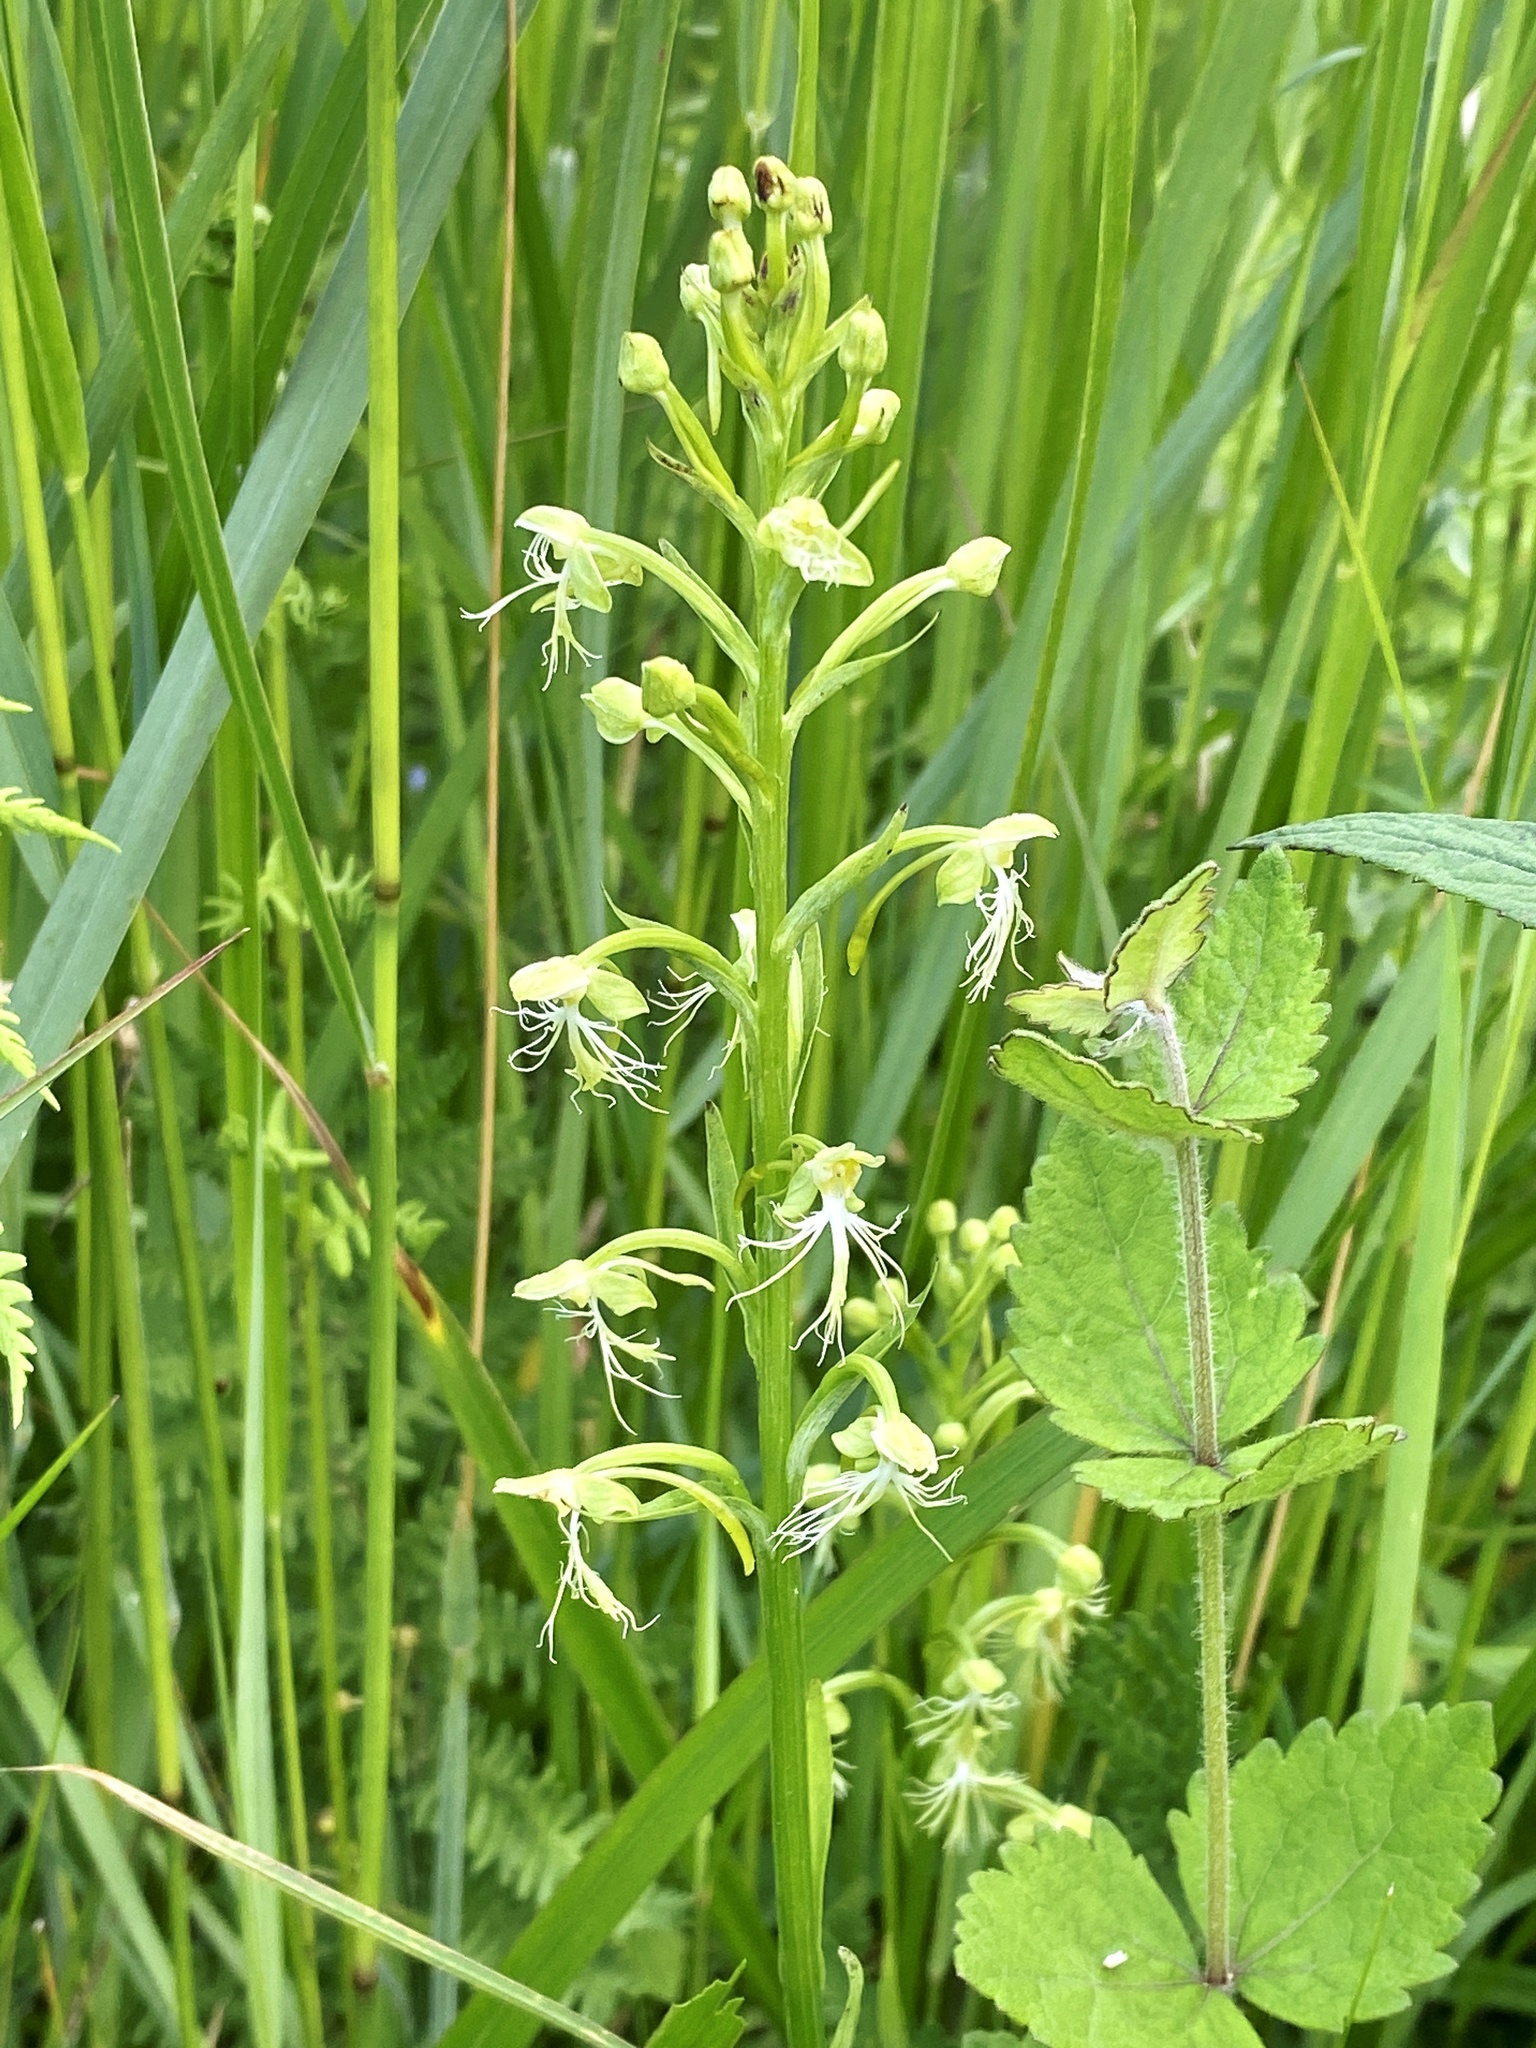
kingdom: Plantae
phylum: Tracheophyta
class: Liliopsida
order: Asparagales
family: Orchidaceae
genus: Platanthera
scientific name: Platanthera lacera
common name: Green fringed orchid
